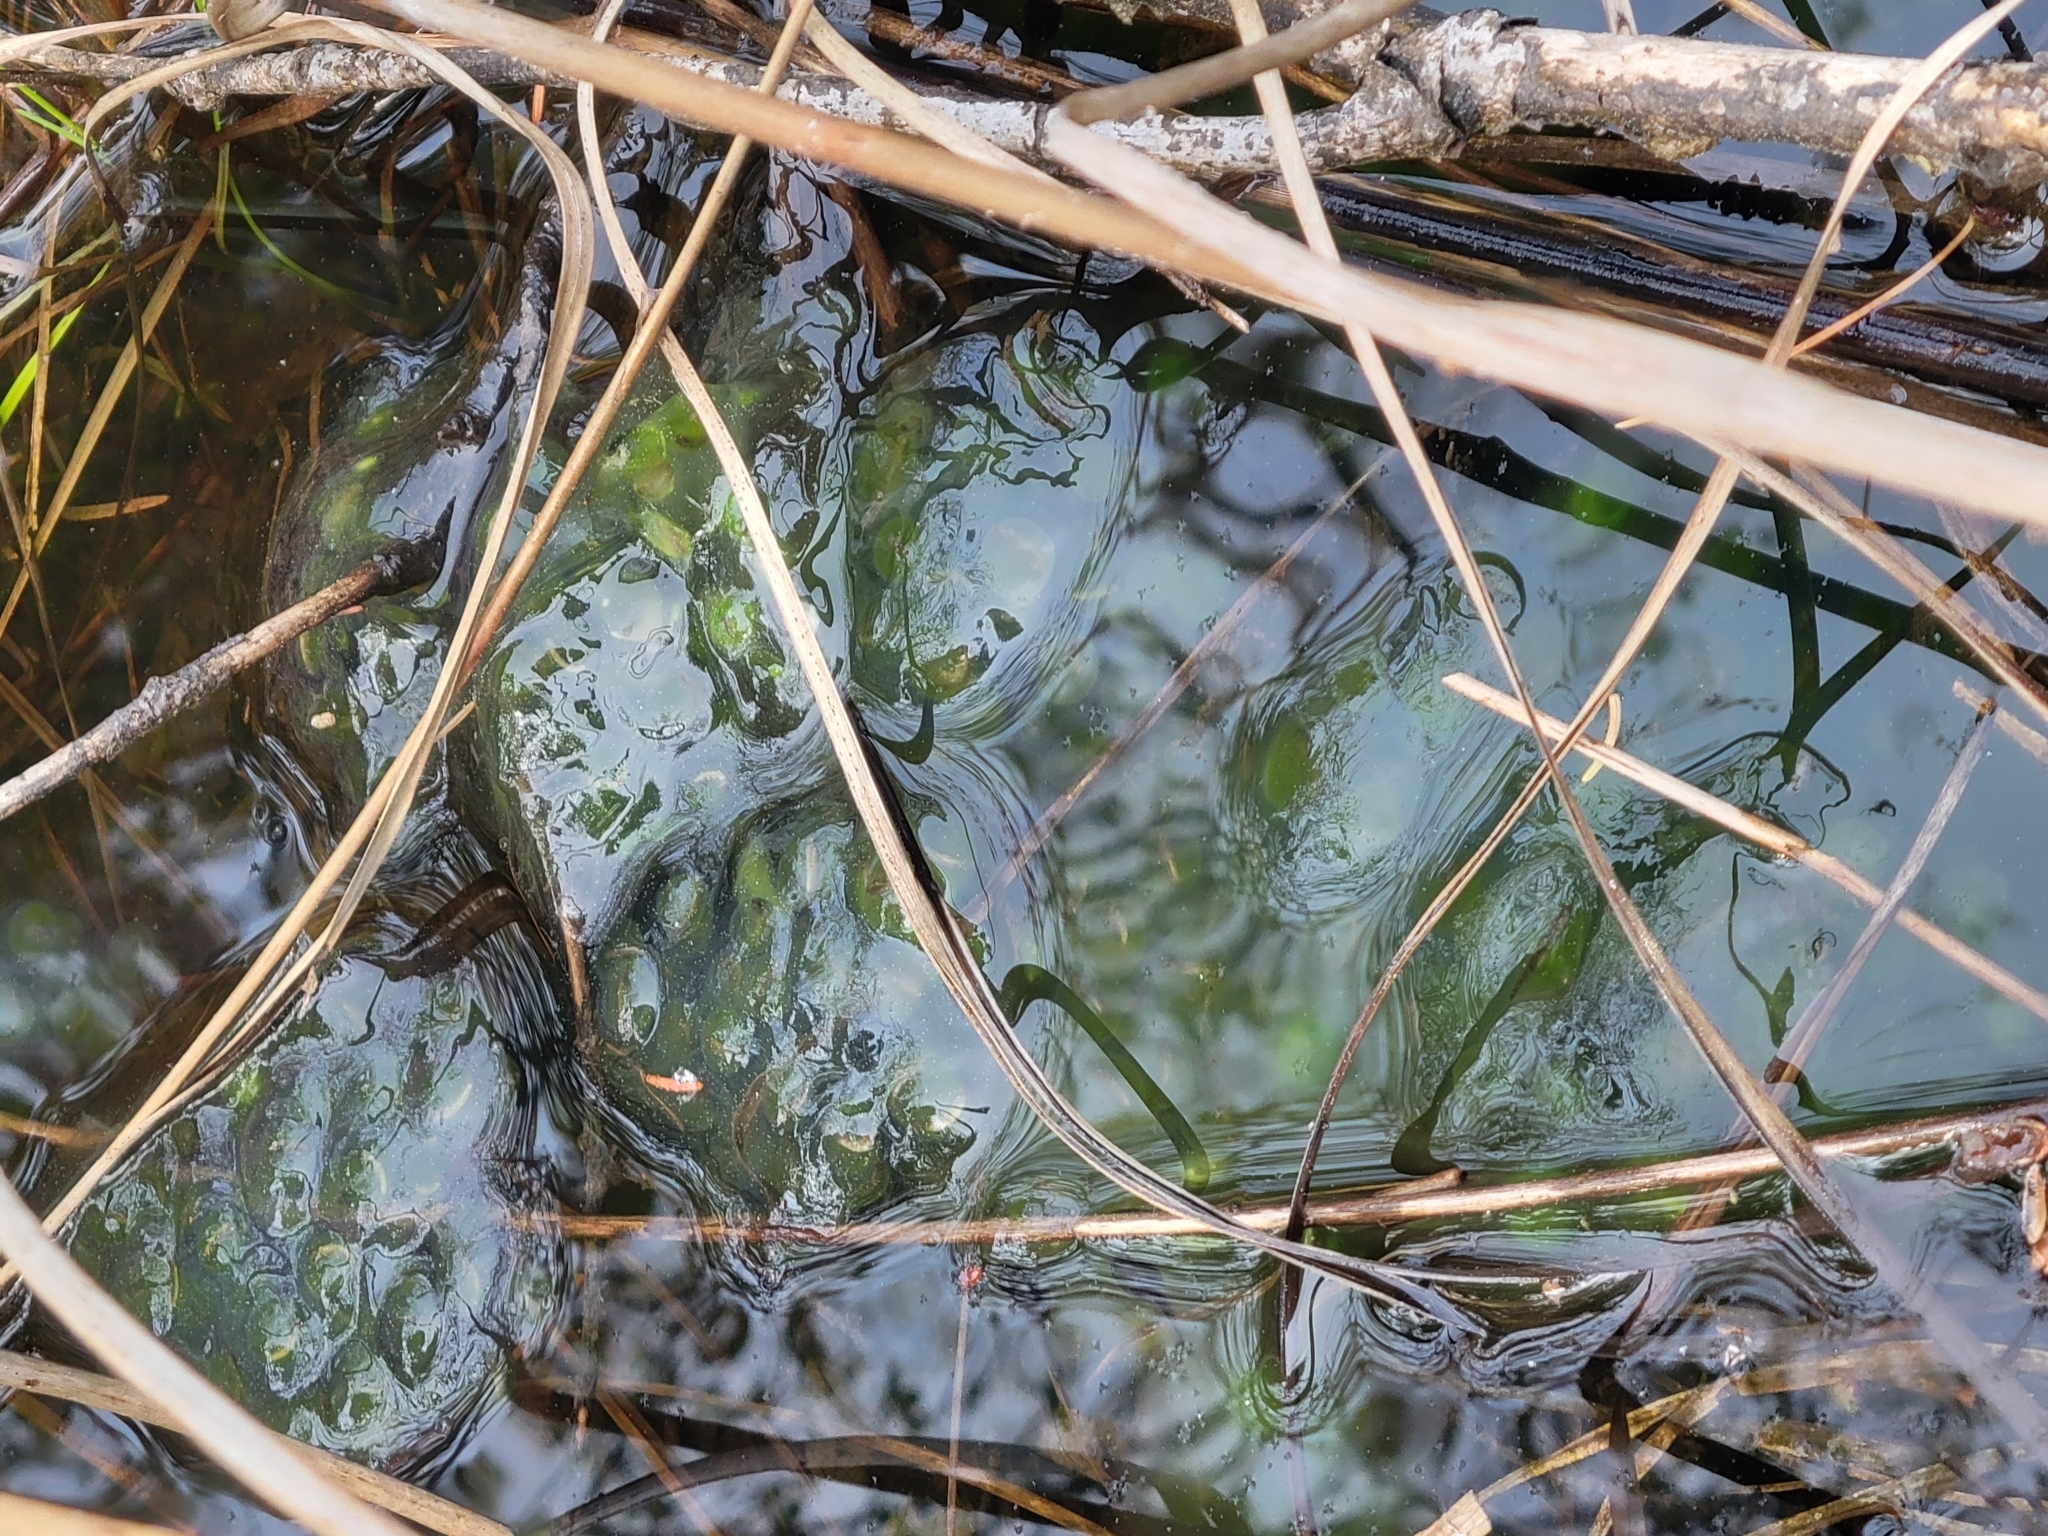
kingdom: Animalia
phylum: Chordata
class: Amphibia
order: Caudata
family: Ambystomatidae
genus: Ambystoma
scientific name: Ambystoma maculatum
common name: Spotted salamander
